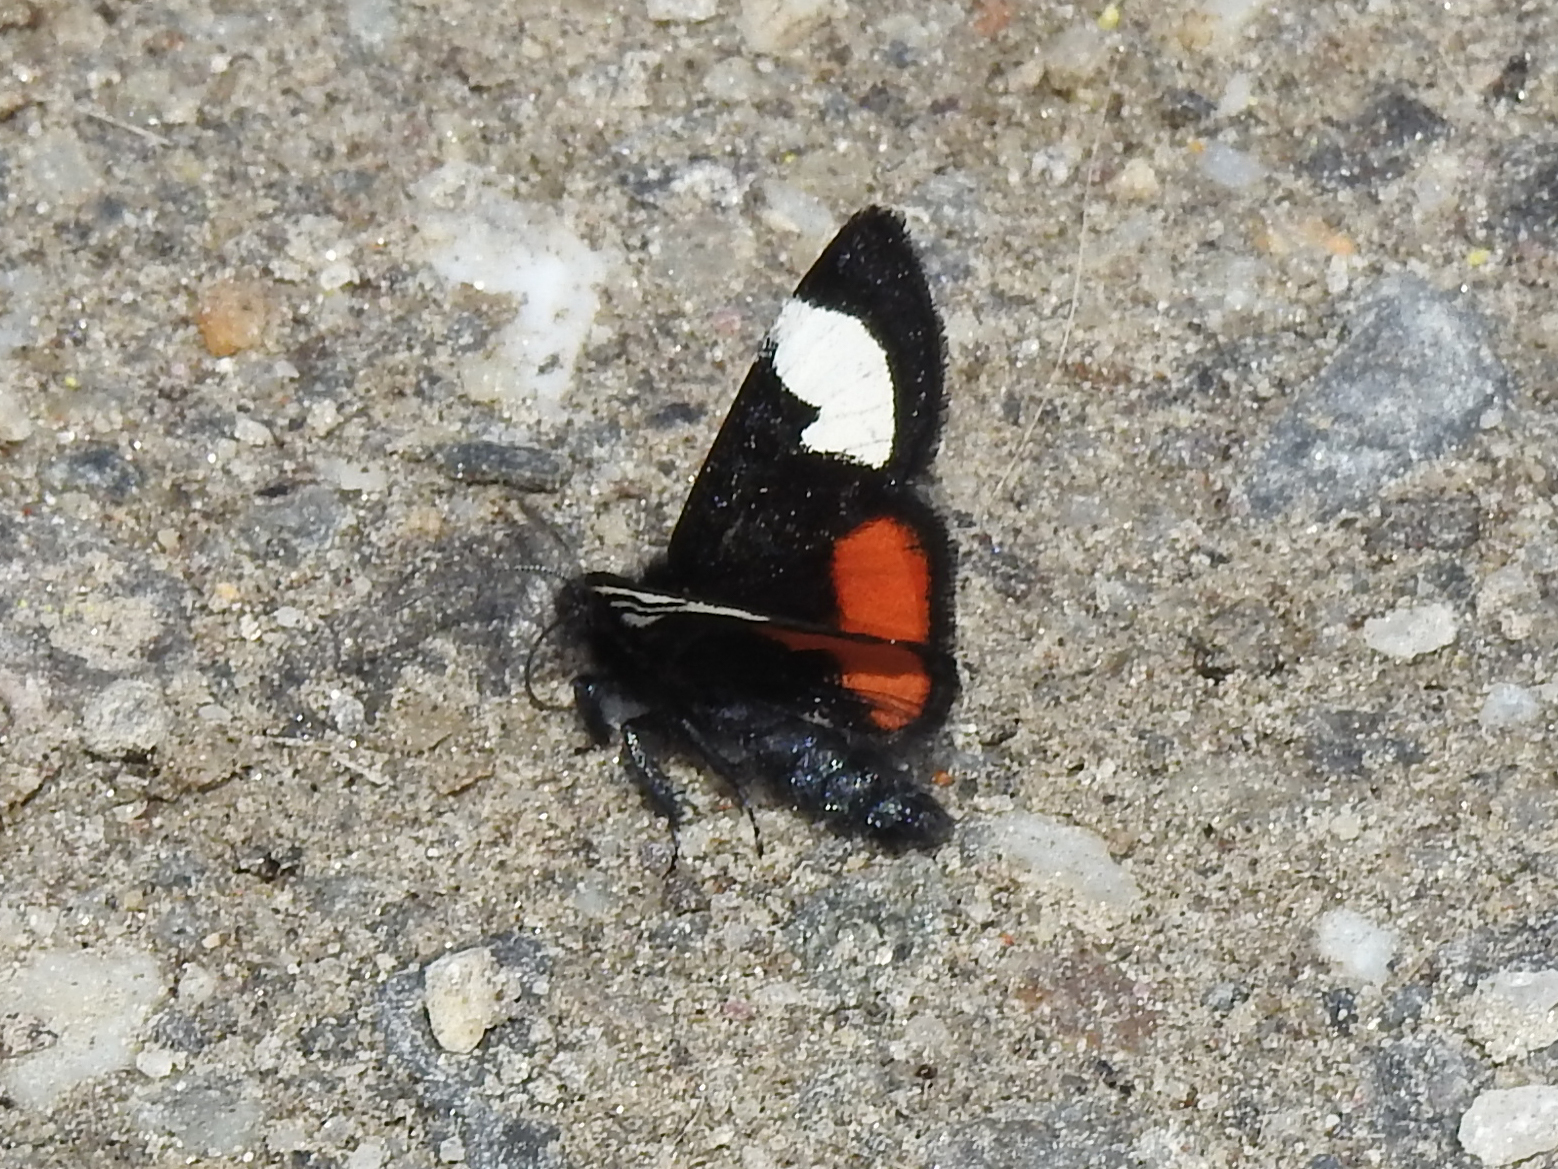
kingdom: Animalia
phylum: Arthropoda
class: Insecta
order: Lepidoptera
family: Noctuidae
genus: Psychomorpha
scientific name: Psychomorpha epimenis
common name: Grapevine epimenis moth
